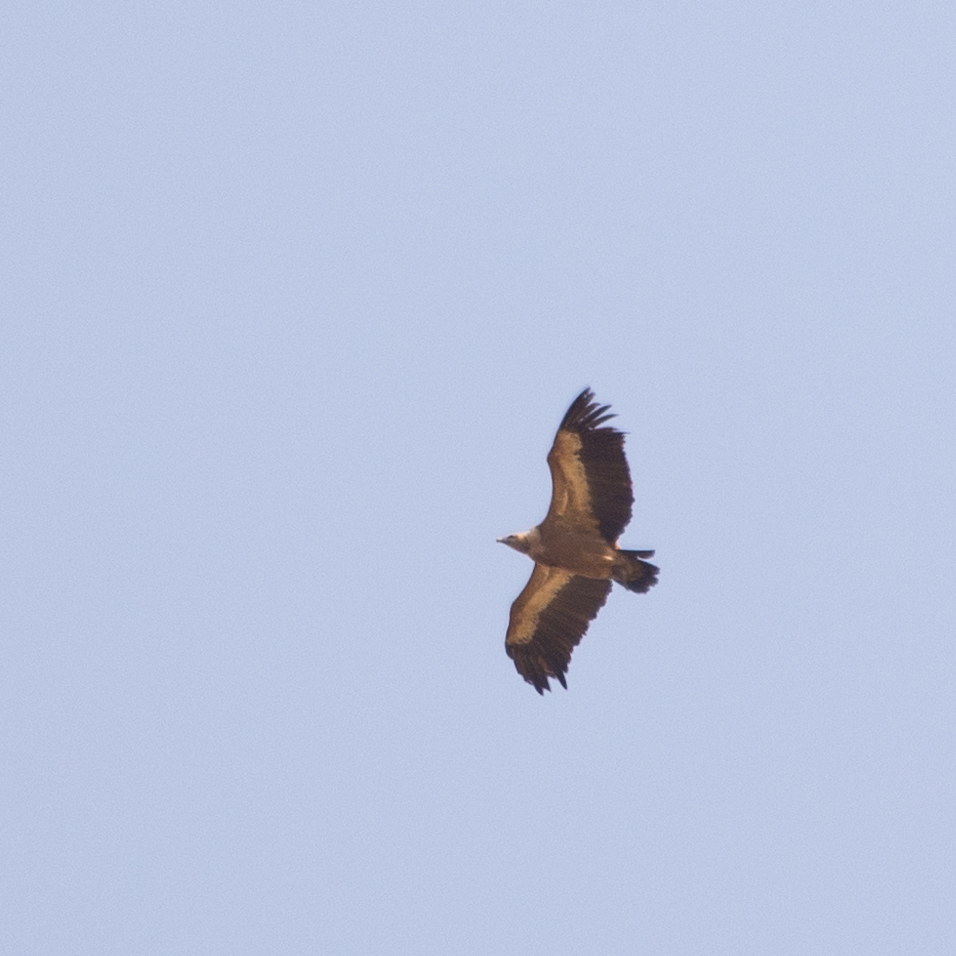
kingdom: Animalia
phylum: Chordata
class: Aves
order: Accipitriformes
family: Accipitridae
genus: Gyps
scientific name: Gyps fulvus
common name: Griffon vulture
